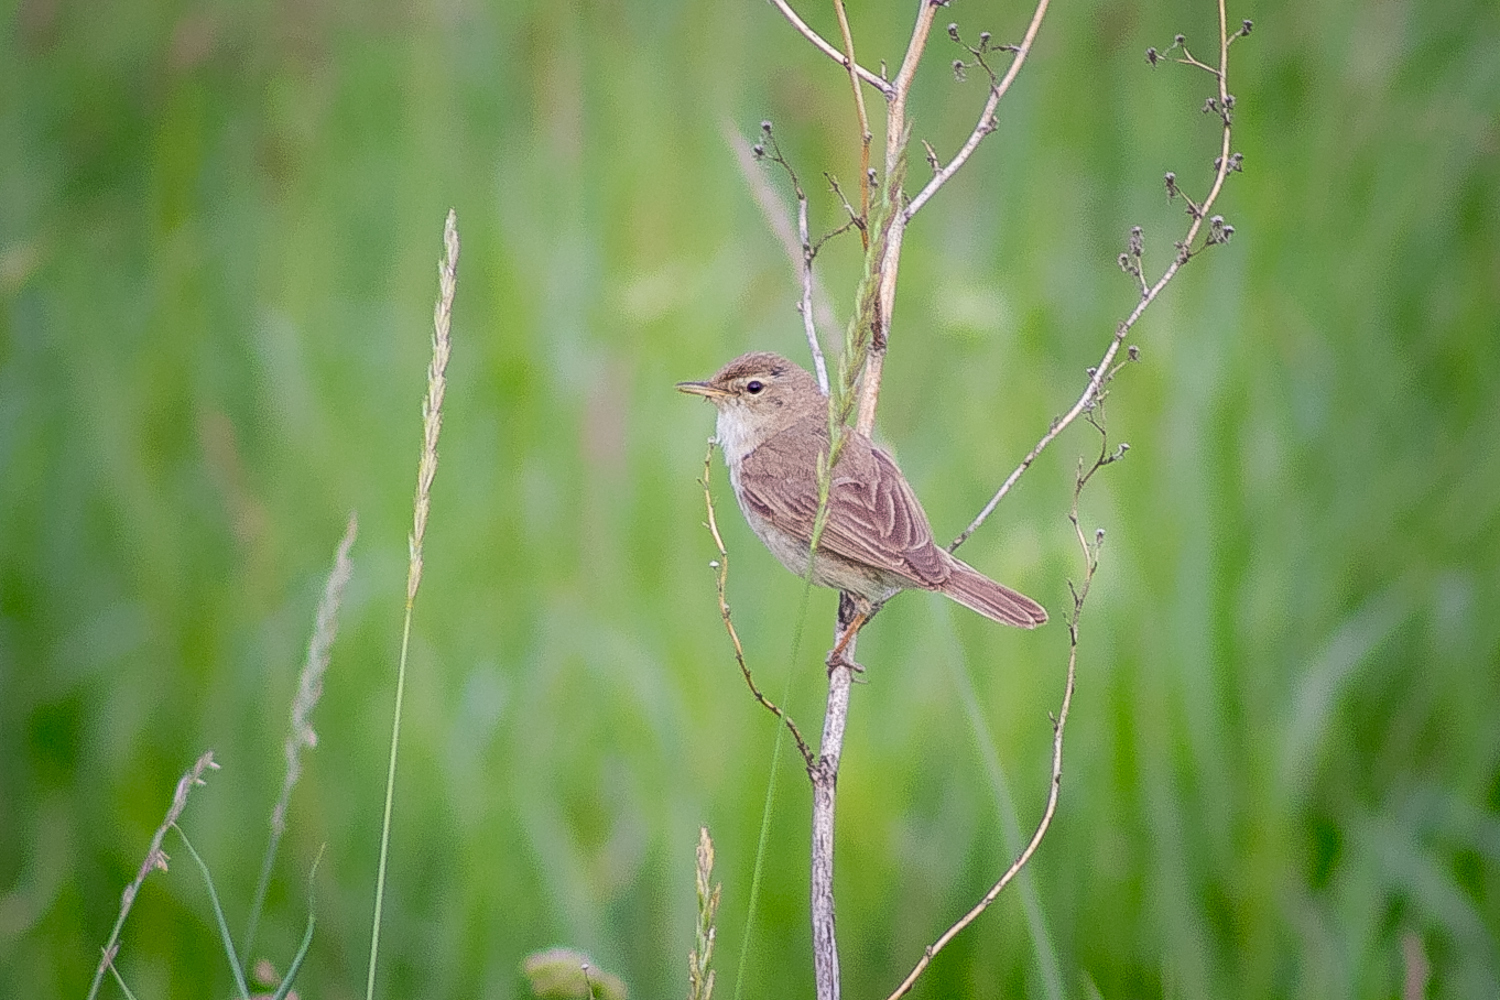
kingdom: Animalia
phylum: Chordata
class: Aves
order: Passeriformes
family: Acrocephalidae
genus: Iduna
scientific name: Iduna caligata
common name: Booted warbler
